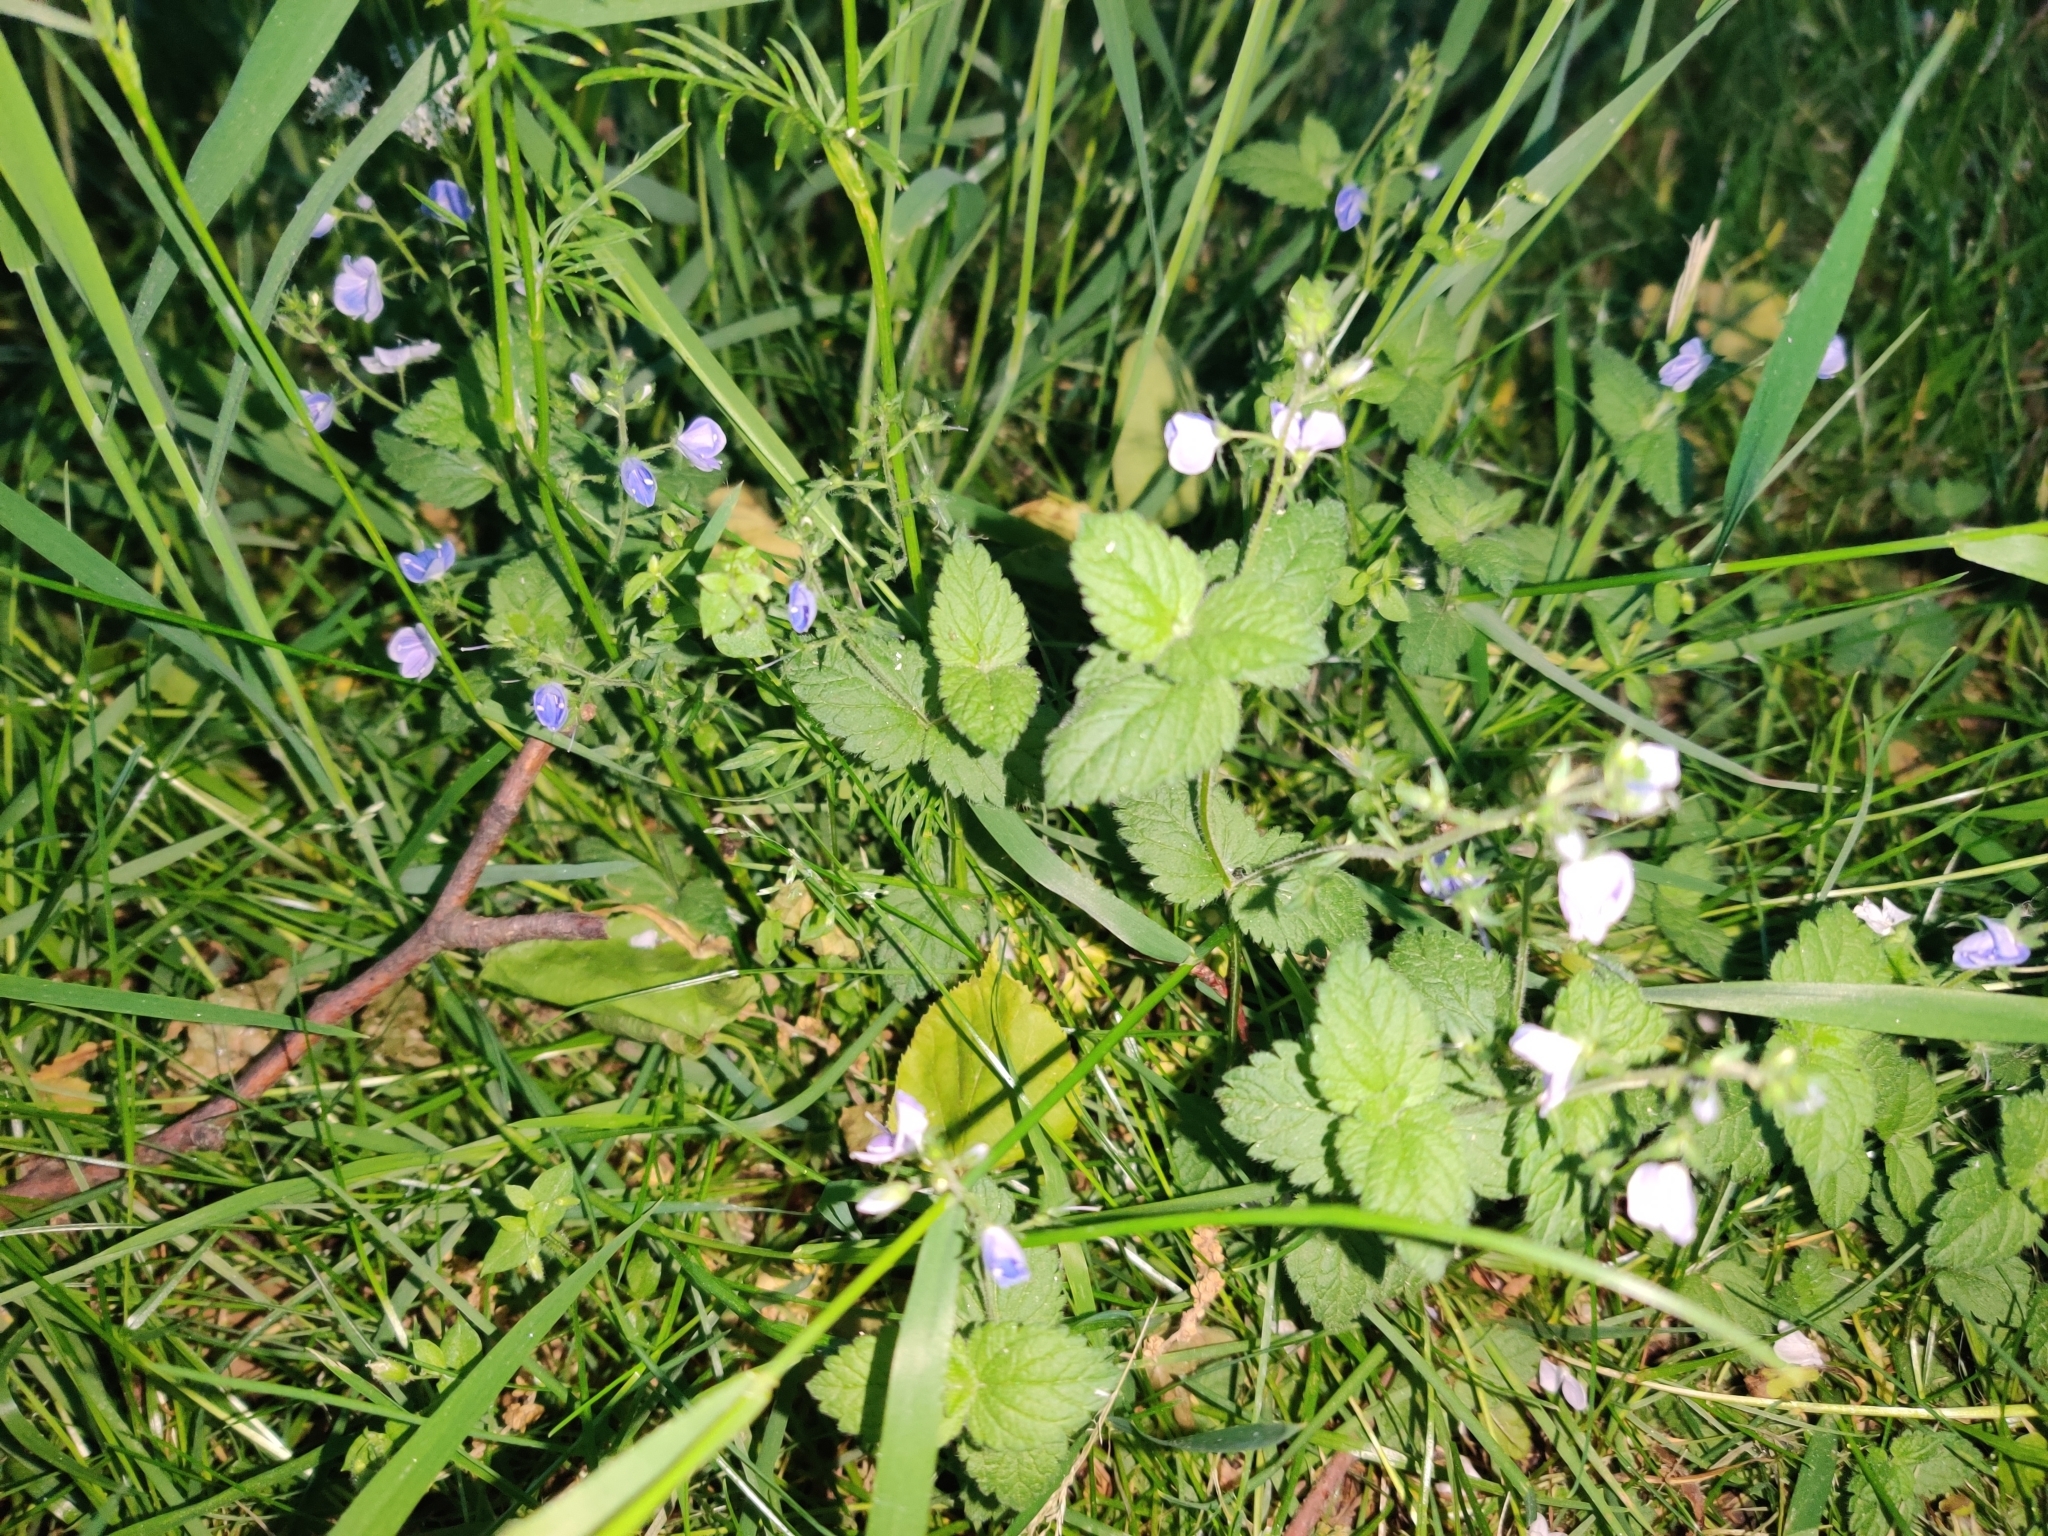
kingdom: Plantae
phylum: Tracheophyta
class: Magnoliopsida
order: Lamiales
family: Plantaginaceae
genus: Veronica
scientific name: Veronica chamaedrys
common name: Germander speedwell
